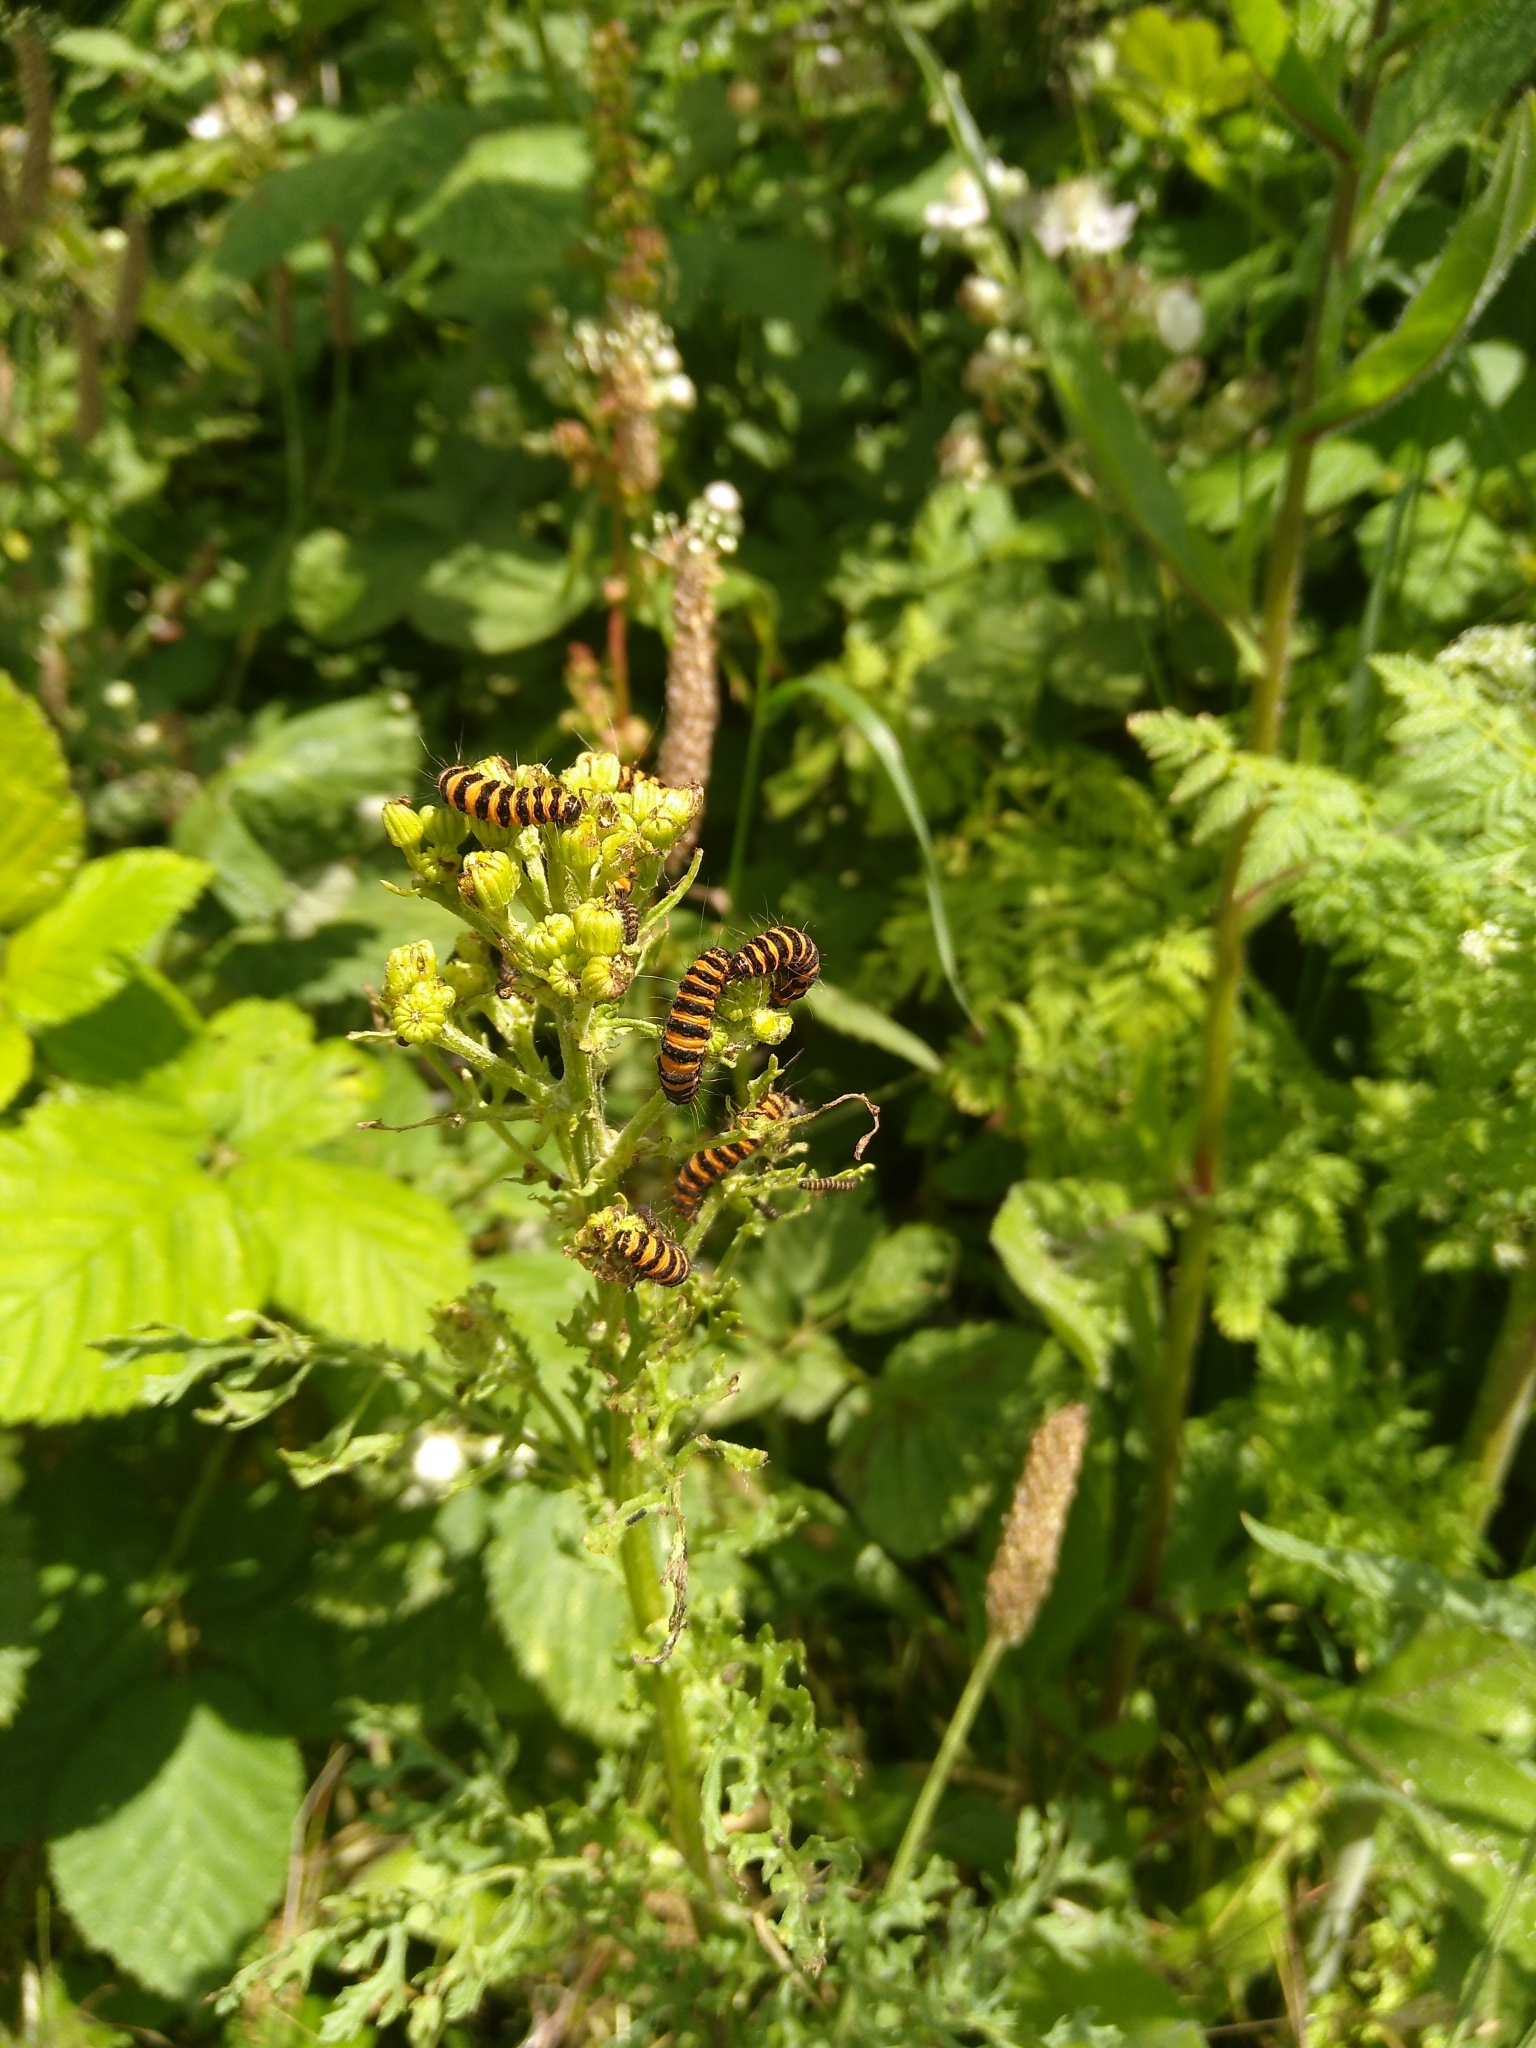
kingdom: Animalia
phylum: Arthropoda
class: Insecta
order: Lepidoptera
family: Erebidae
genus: Tyria
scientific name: Tyria jacobaeae
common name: Cinnabar
